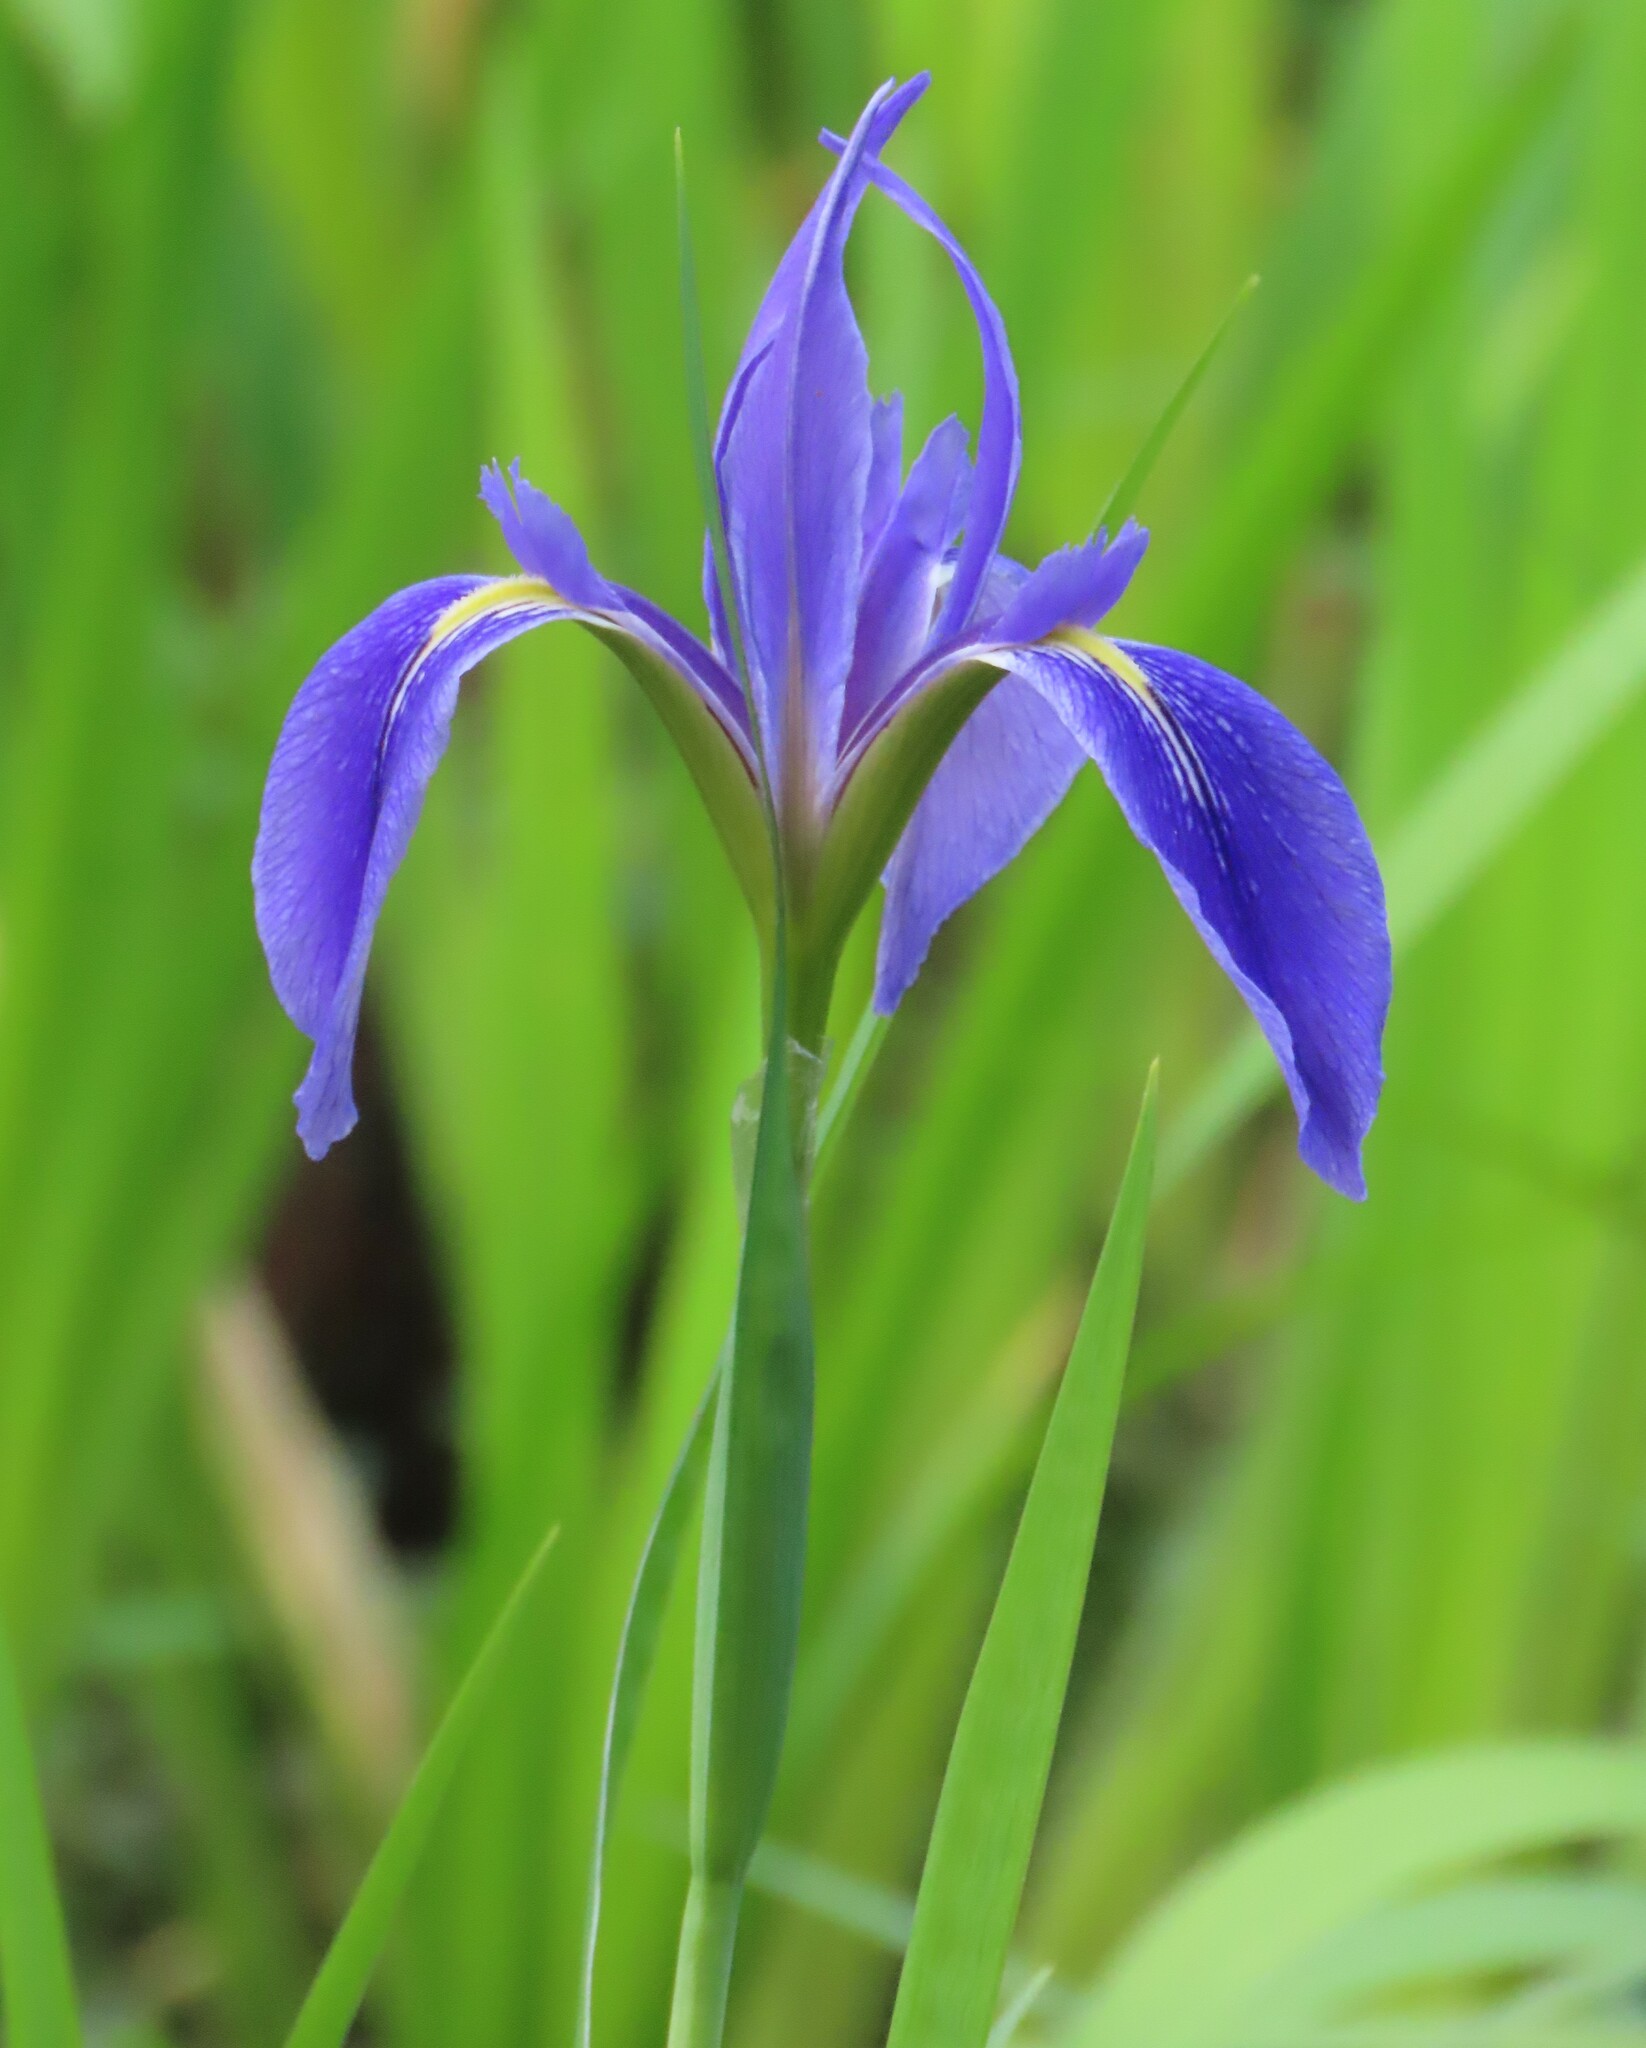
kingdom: Plantae
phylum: Tracheophyta
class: Liliopsida
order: Asparagales
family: Iridaceae
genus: Iris
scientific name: Iris savannarum
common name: Prairie iris
